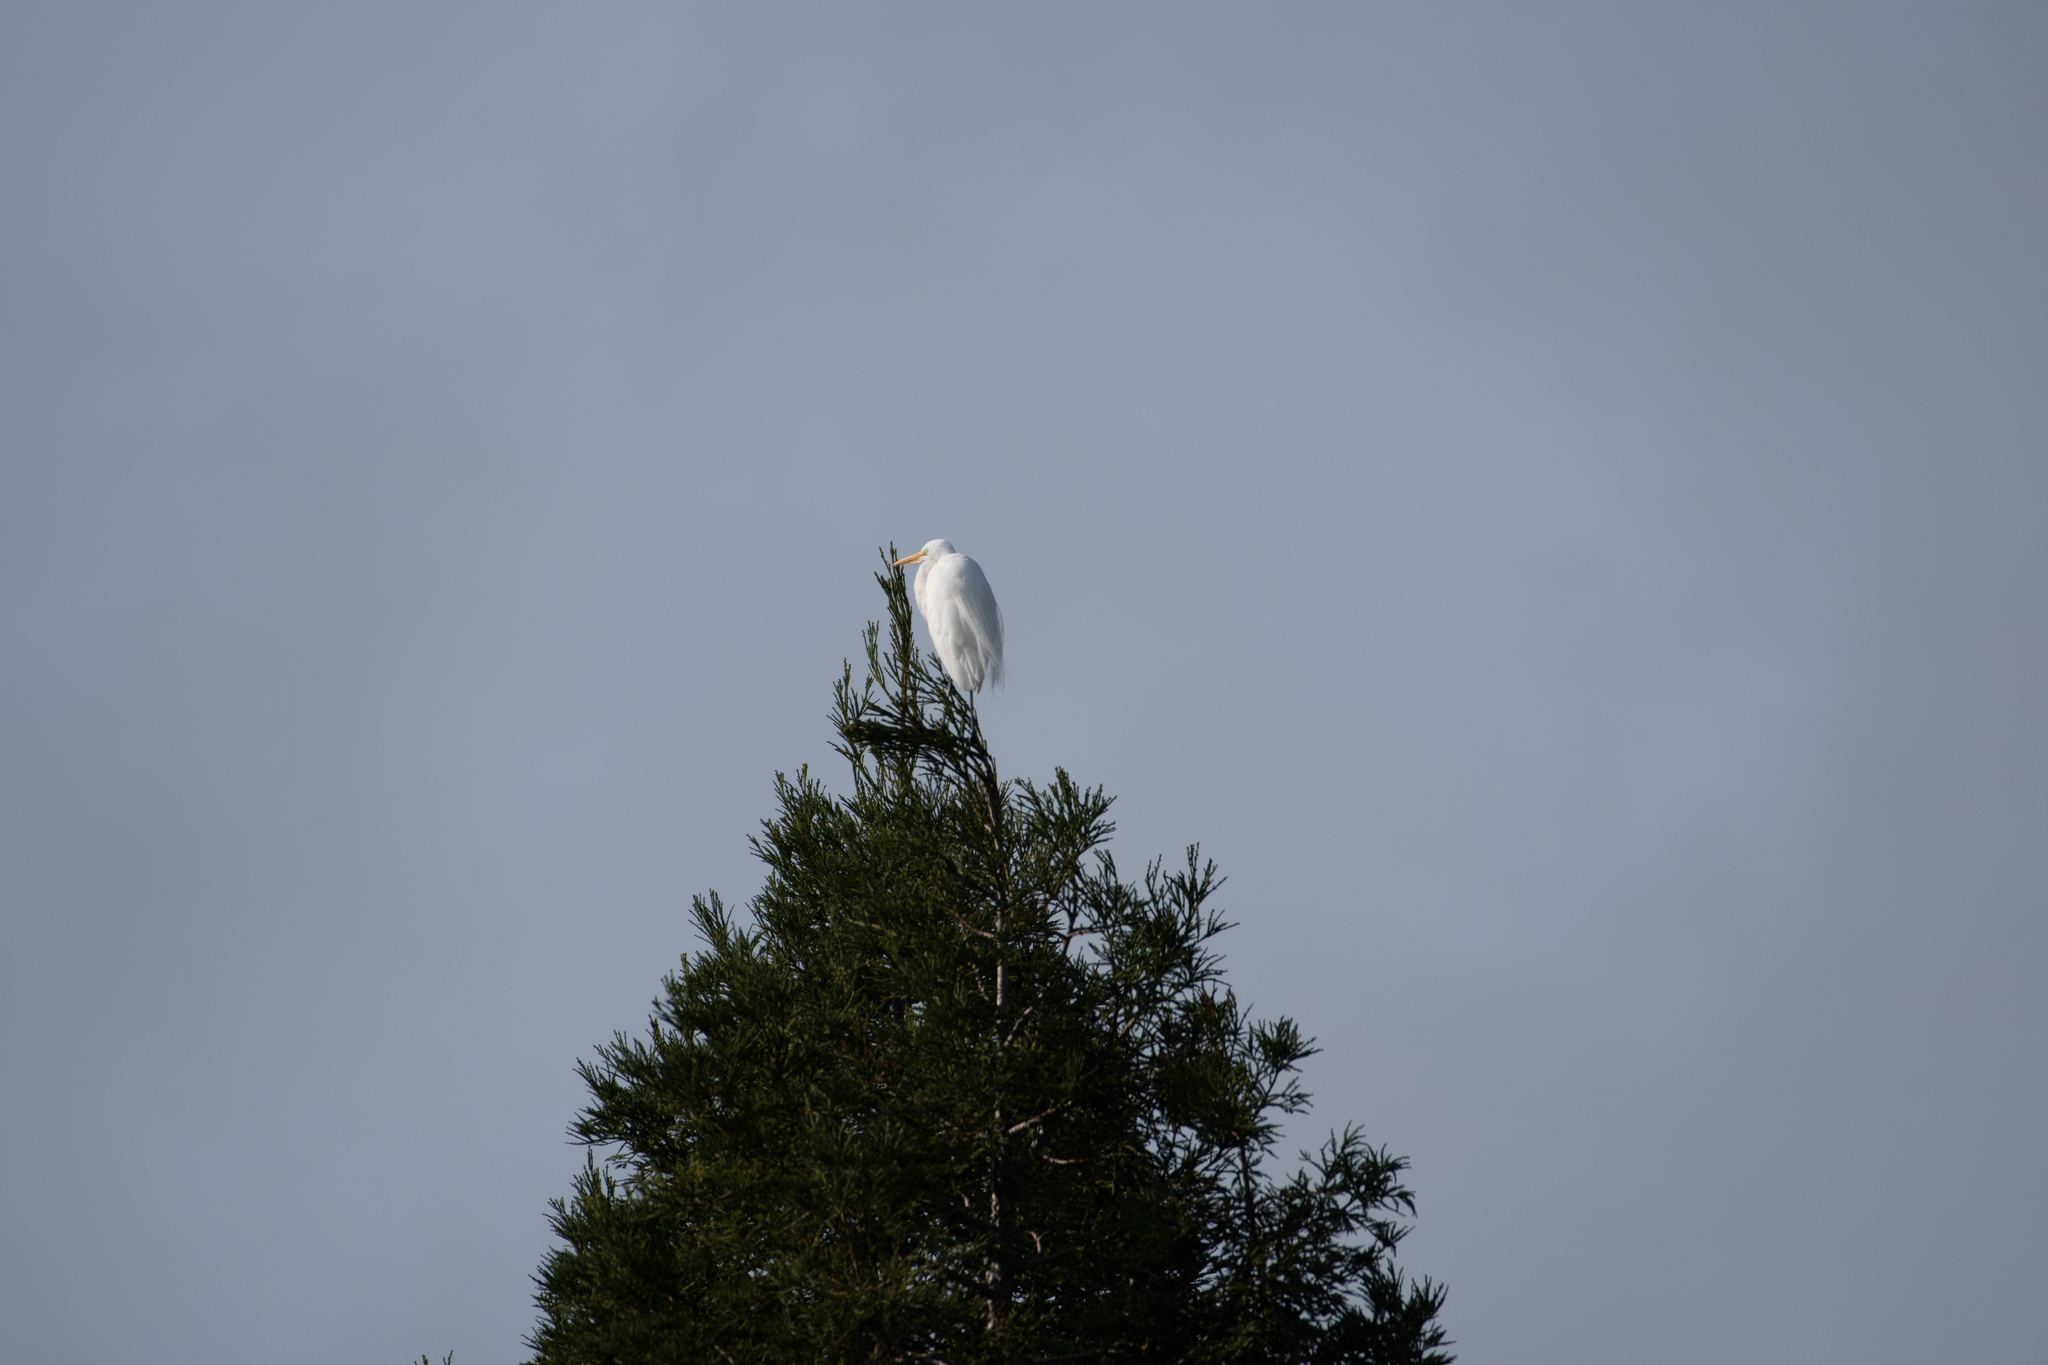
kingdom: Animalia
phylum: Chordata
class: Aves
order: Pelecaniformes
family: Ardeidae
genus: Ardea
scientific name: Ardea alba
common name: Great egret
